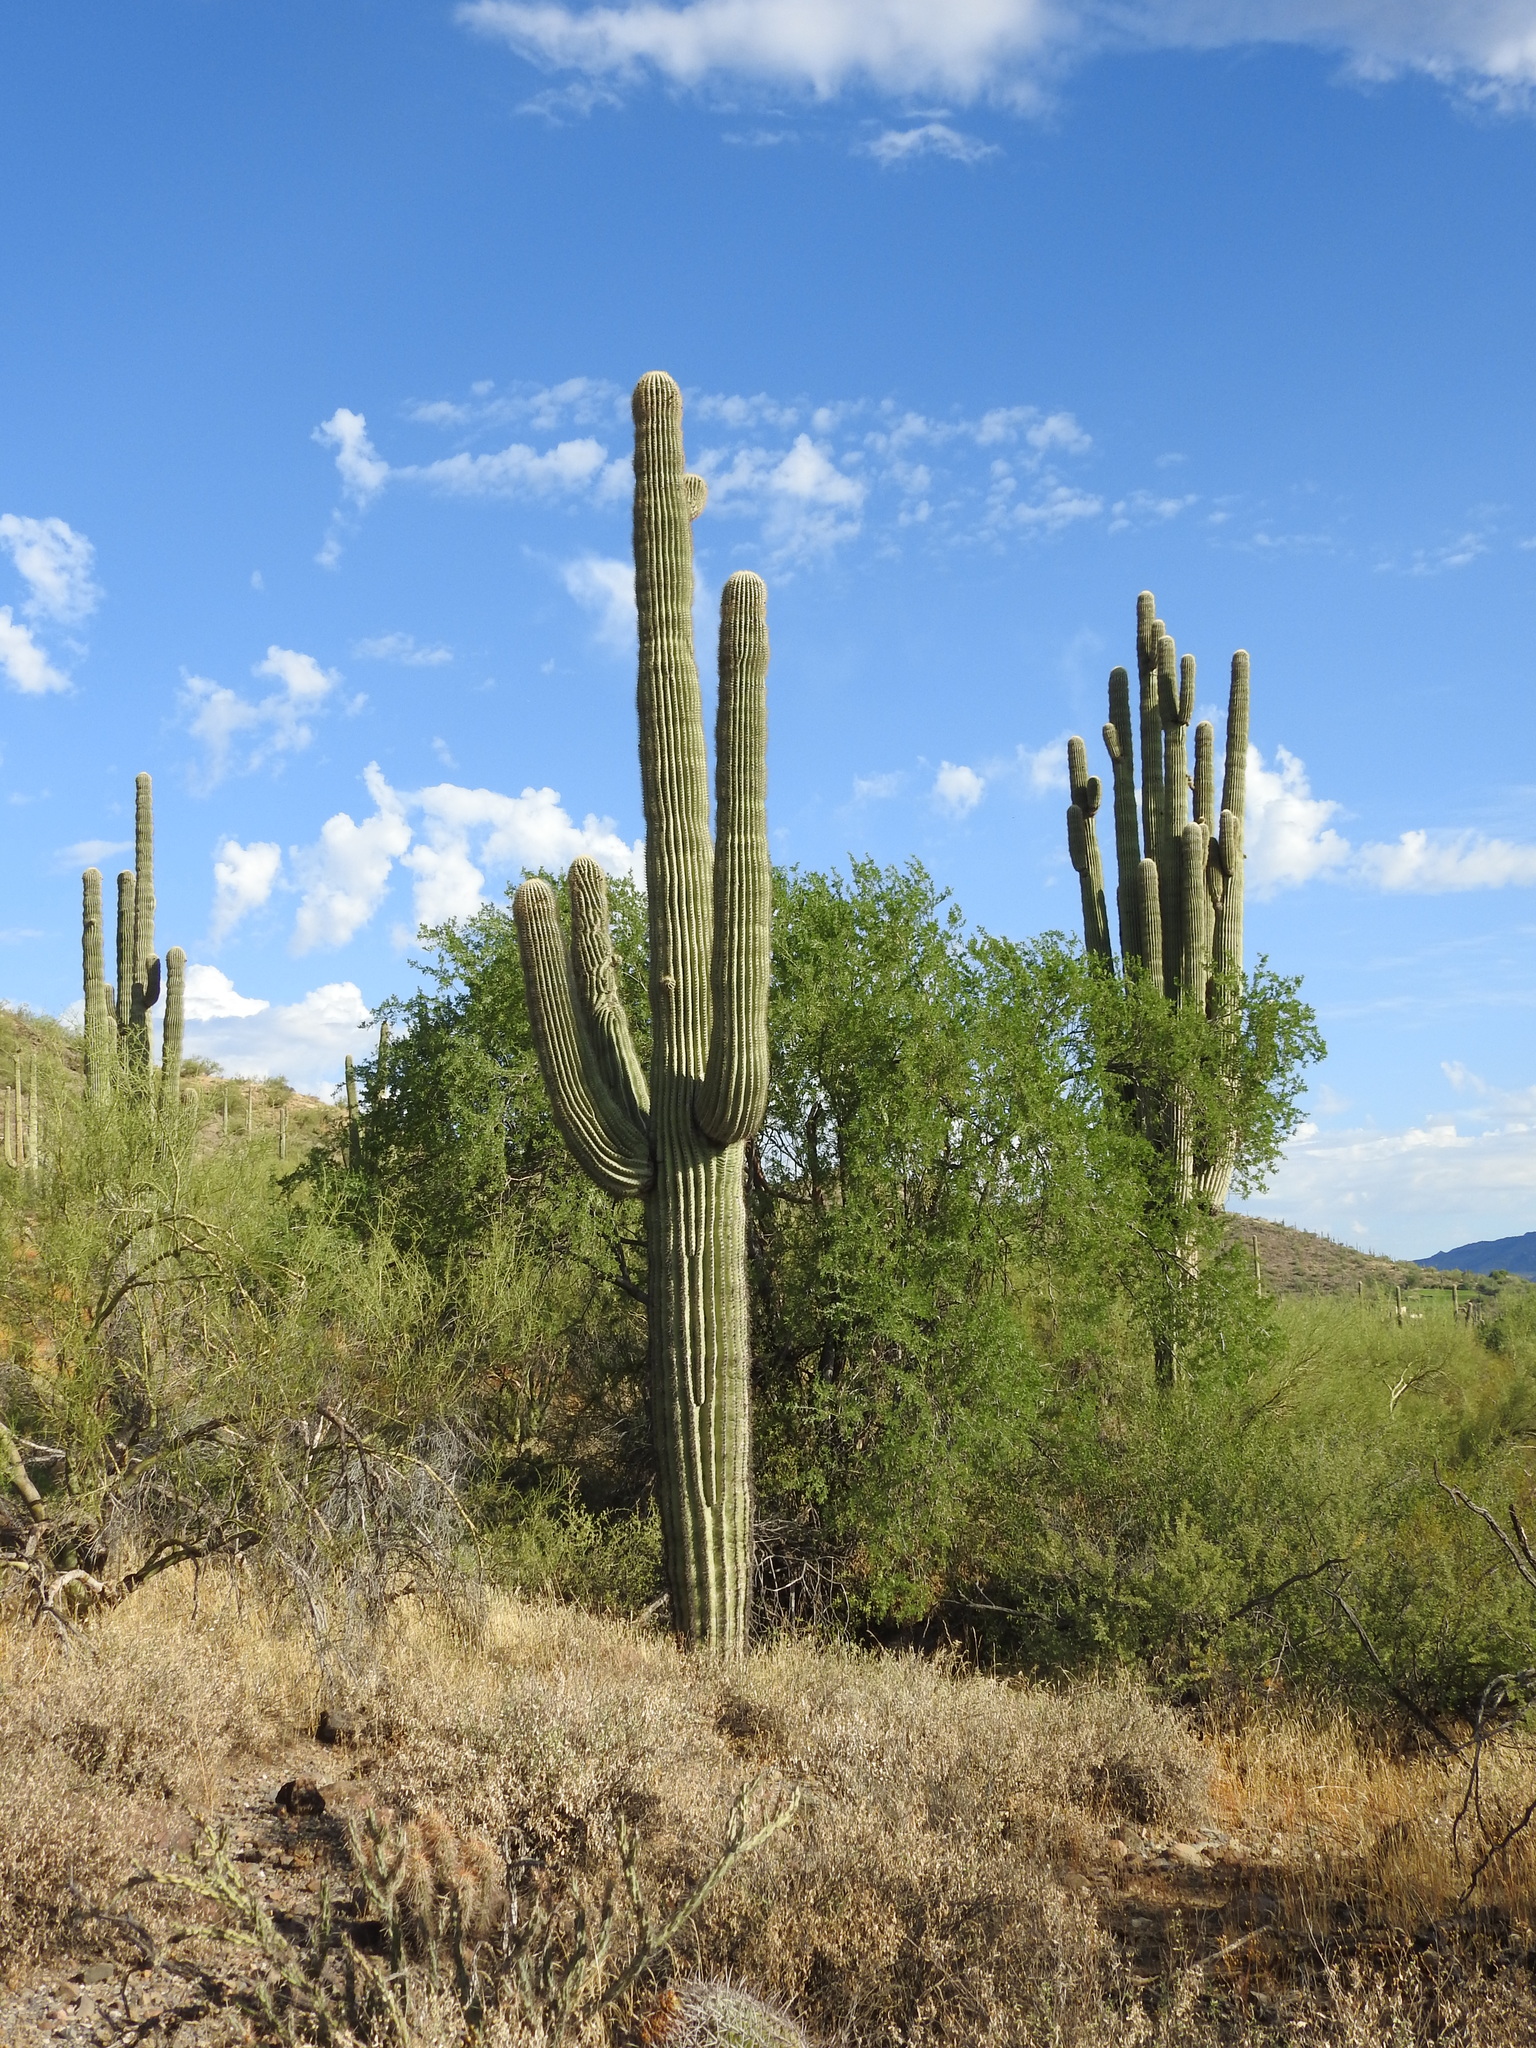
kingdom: Plantae
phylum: Tracheophyta
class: Magnoliopsida
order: Caryophyllales
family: Cactaceae
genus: Carnegiea
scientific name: Carnegiea gigantea
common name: Saguaro
